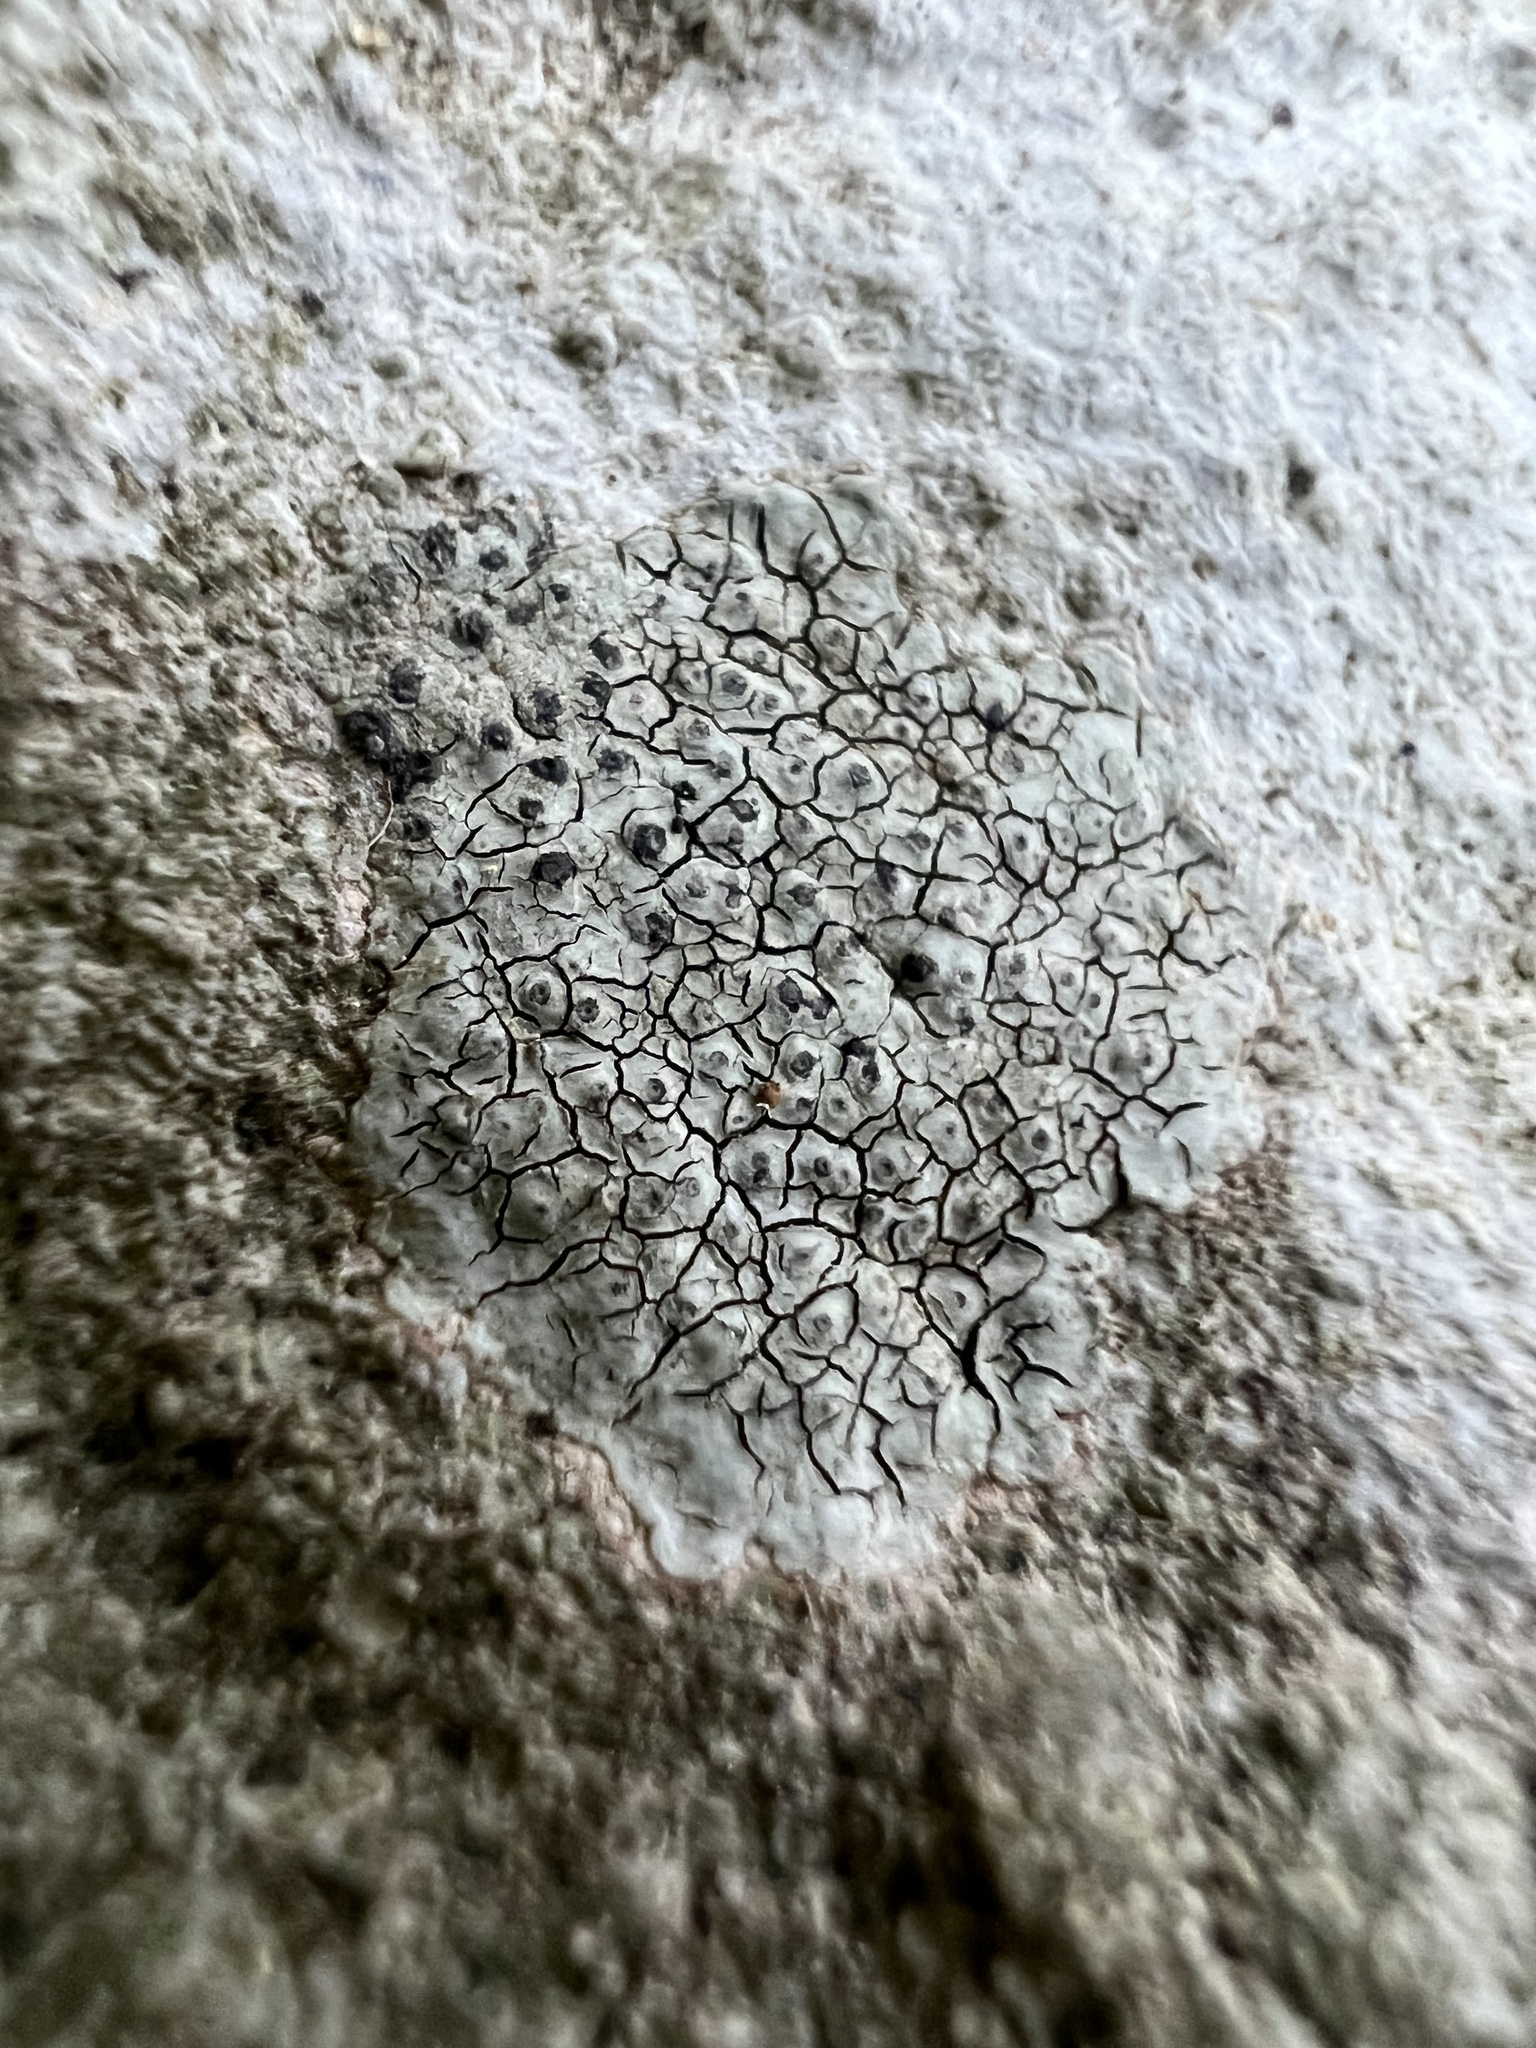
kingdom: Fungi
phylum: Ascomycota
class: Eurotiomycetes
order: Verrucariales
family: Verrucariaceae
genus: Willeya
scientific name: Willeya diffractella
